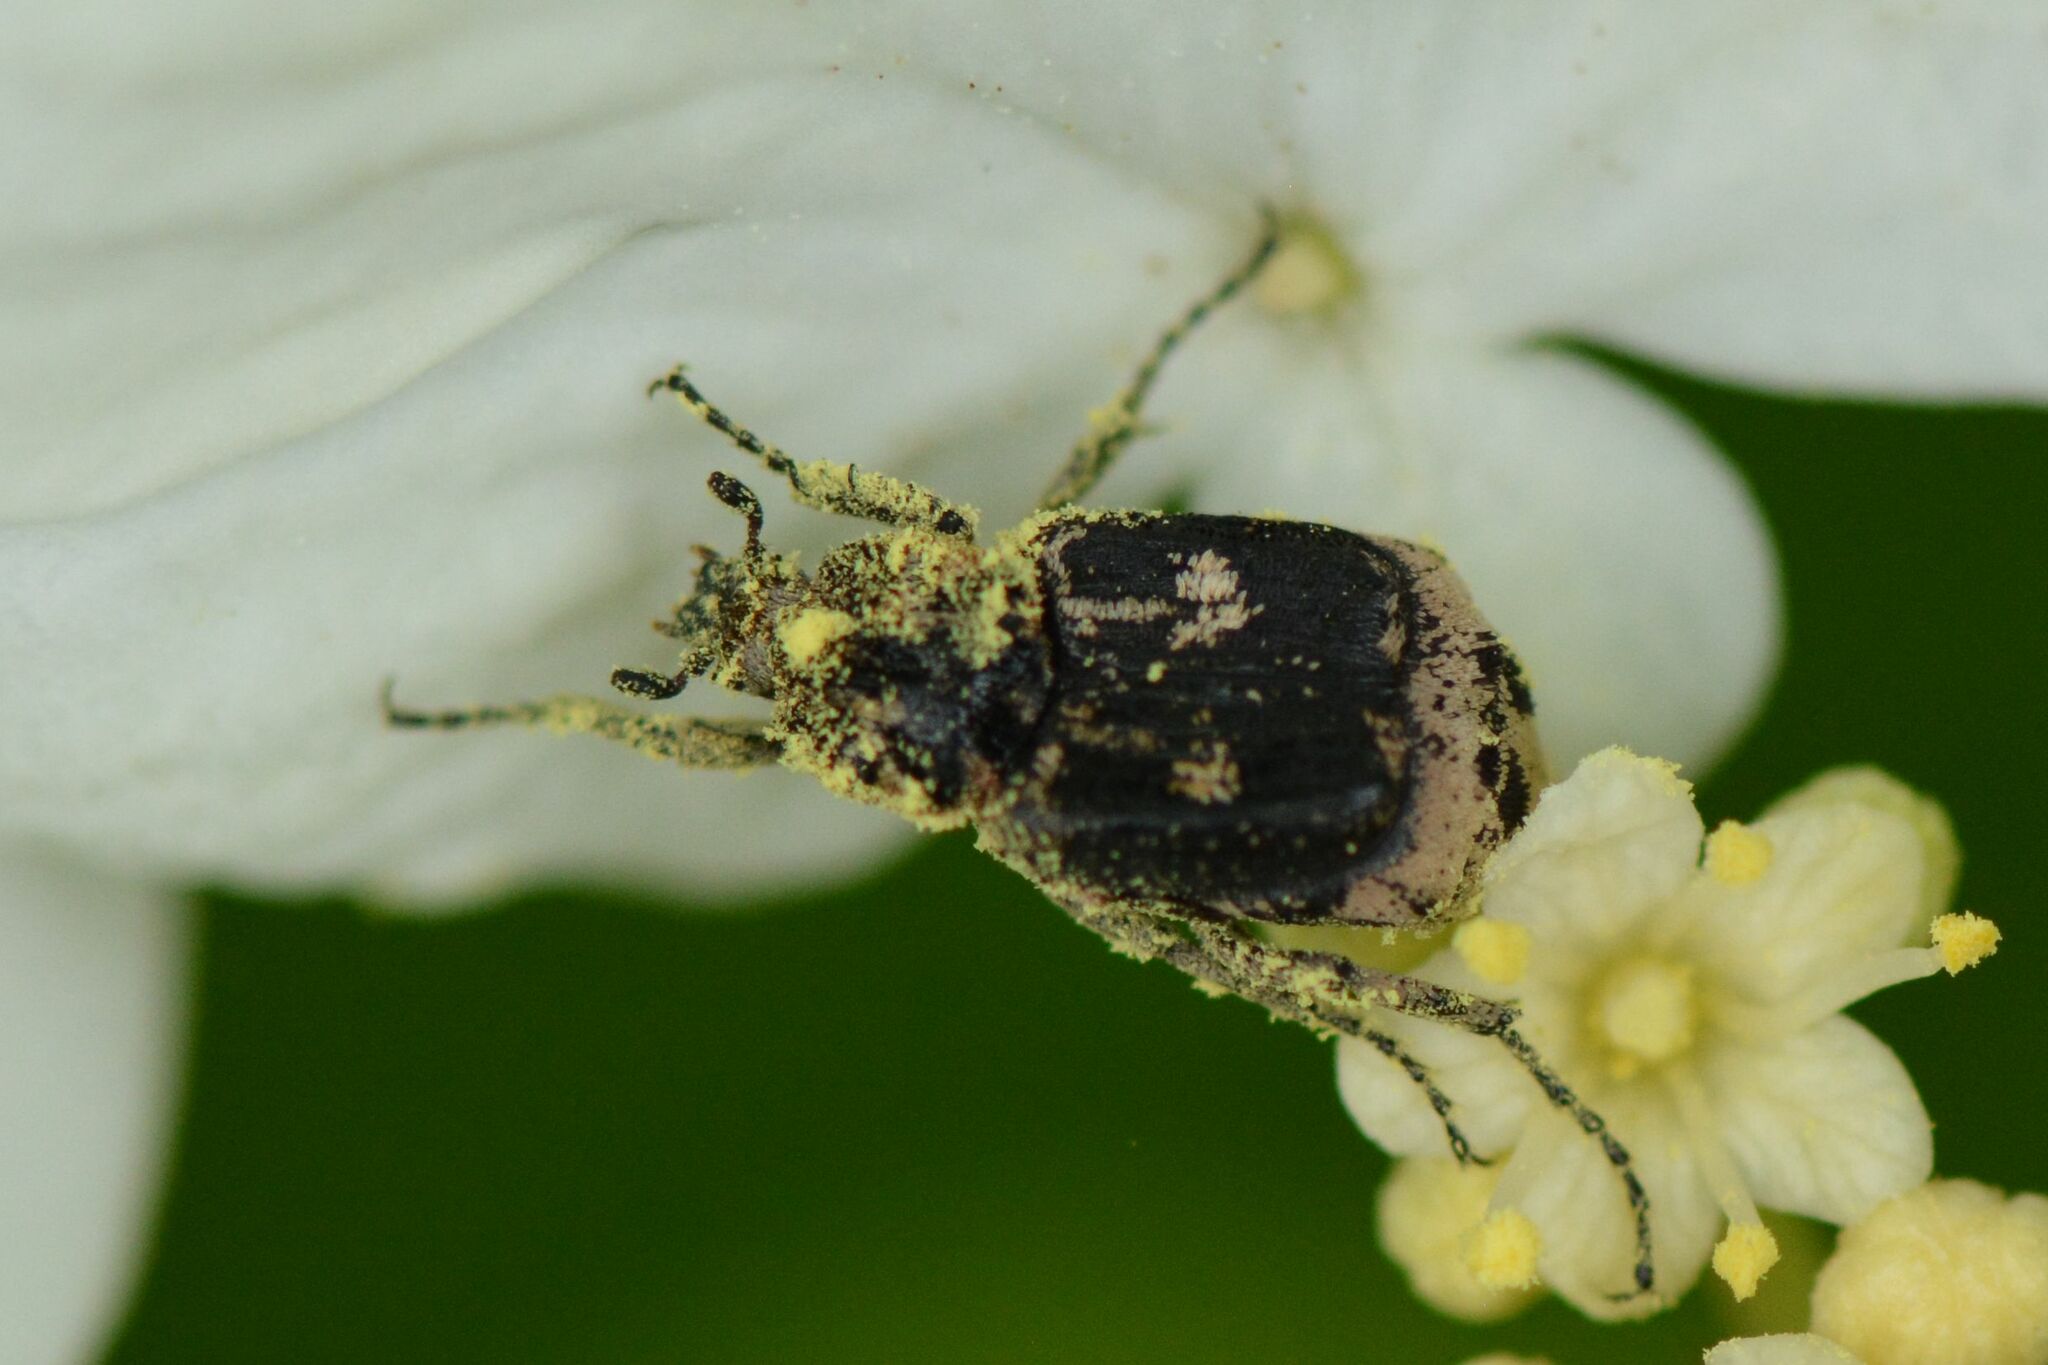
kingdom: Animalia
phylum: Arthropoda
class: Insecta
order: Coleoptera
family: Scarabaeidae
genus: Valgus
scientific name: Valgus hemipterus
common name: Bug flower chafer
